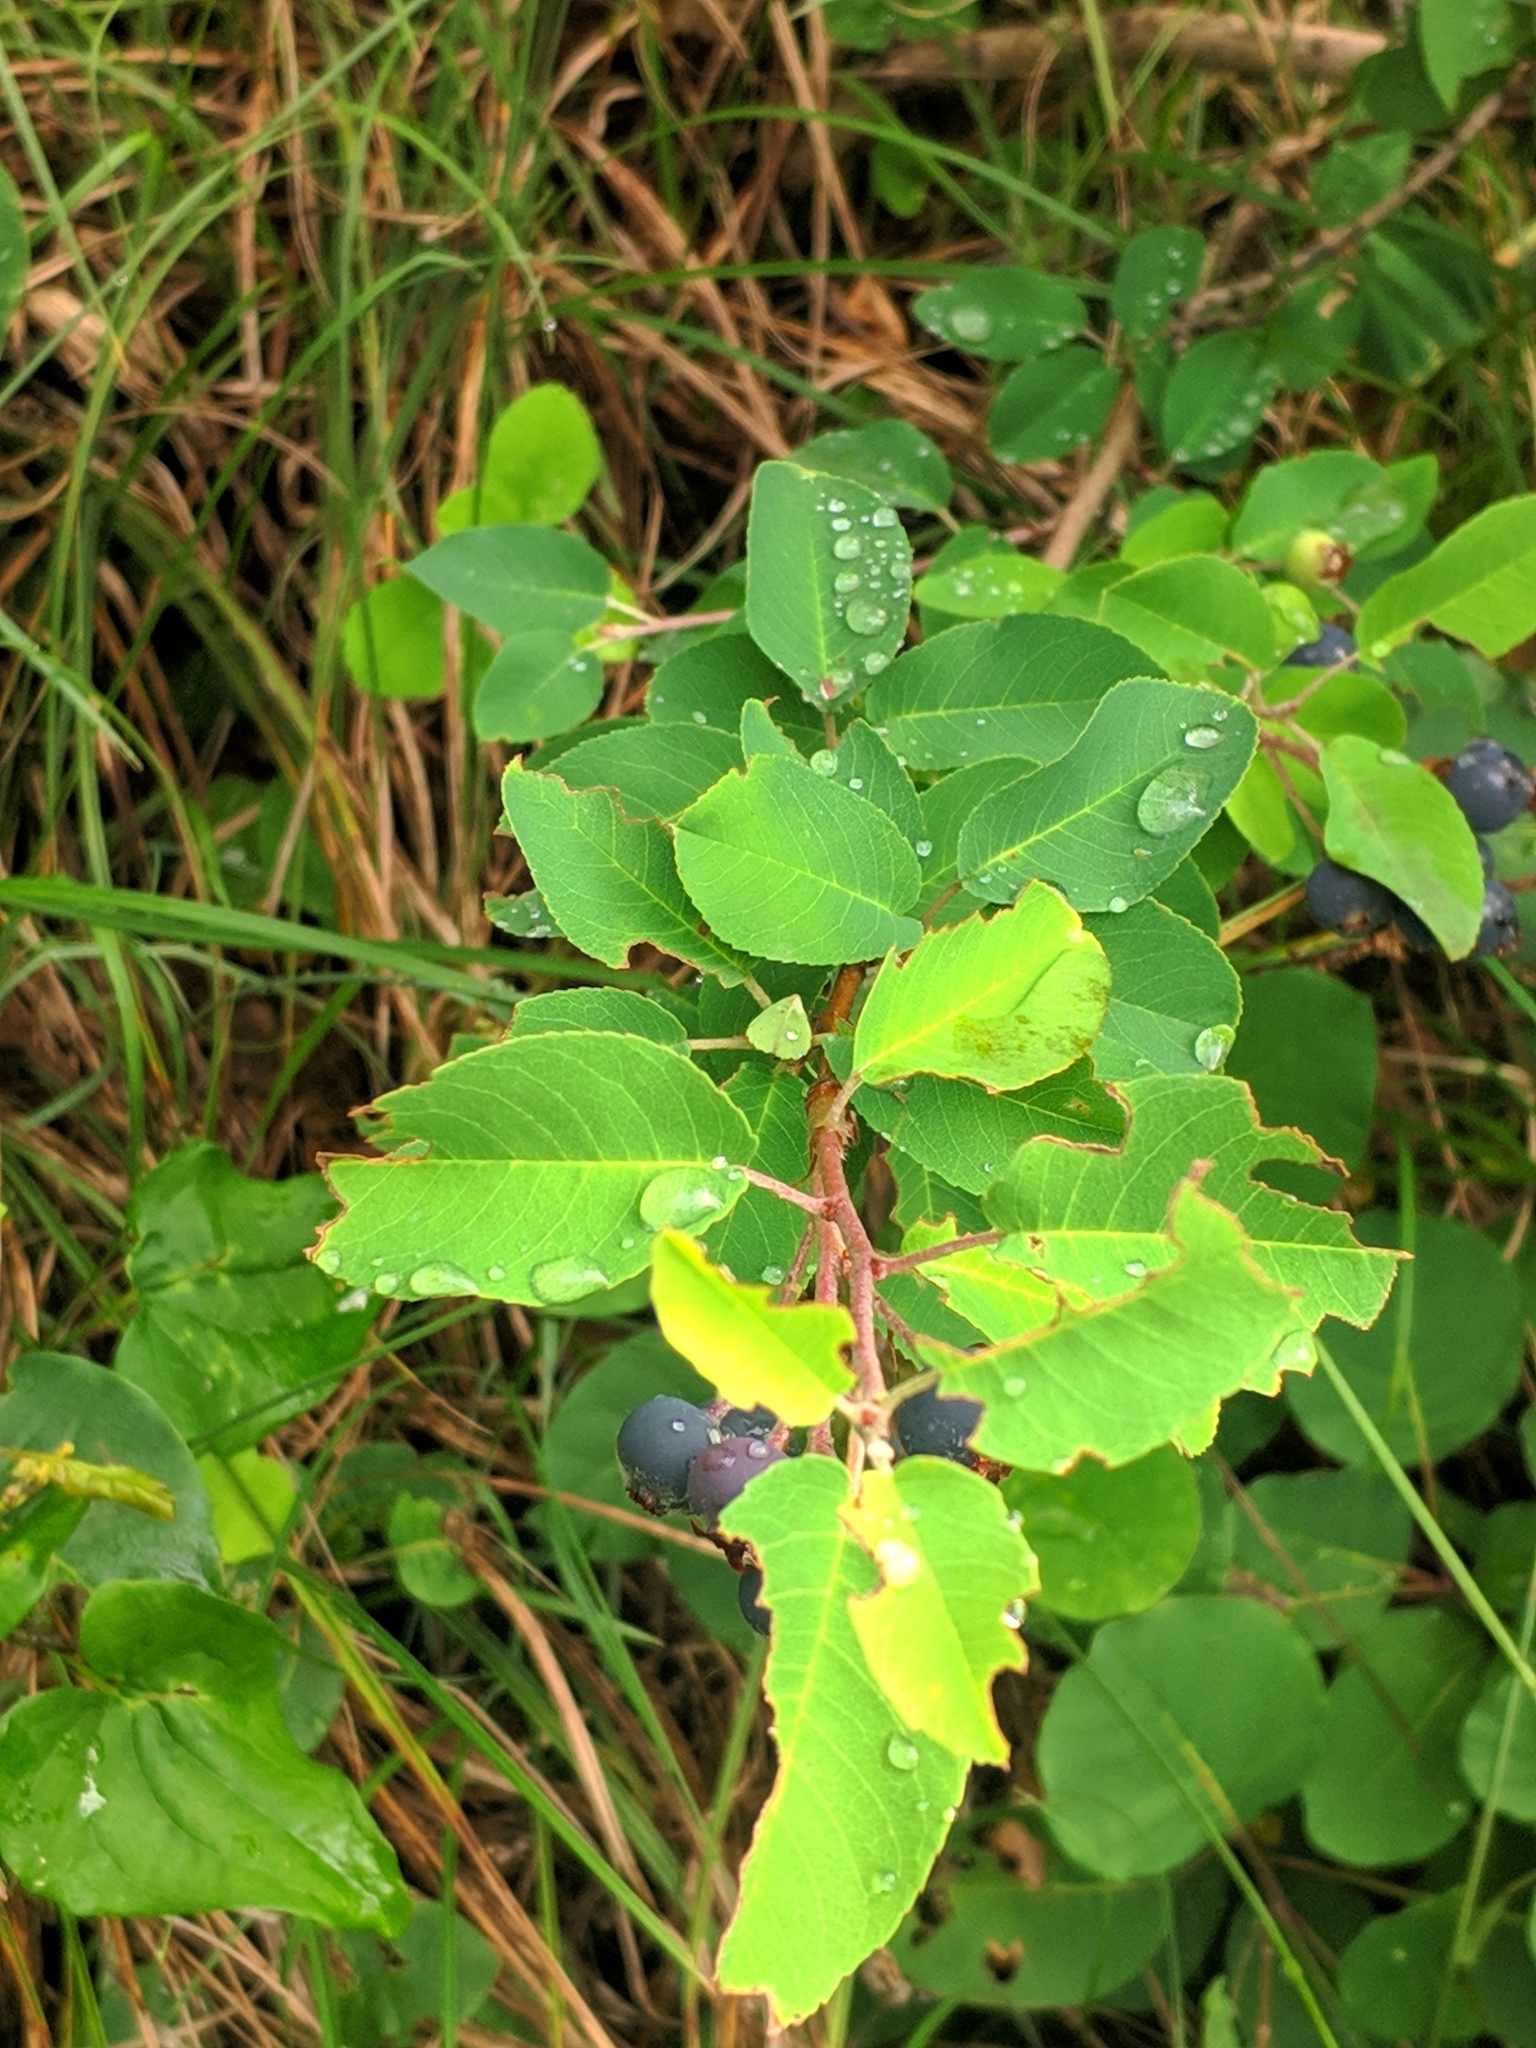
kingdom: Plantae
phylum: Tracheophyta
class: Magnoliopsida
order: Rosales
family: Rosaceae
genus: Amelanchier
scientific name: Amelanchier ovalis
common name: Serviceberry
